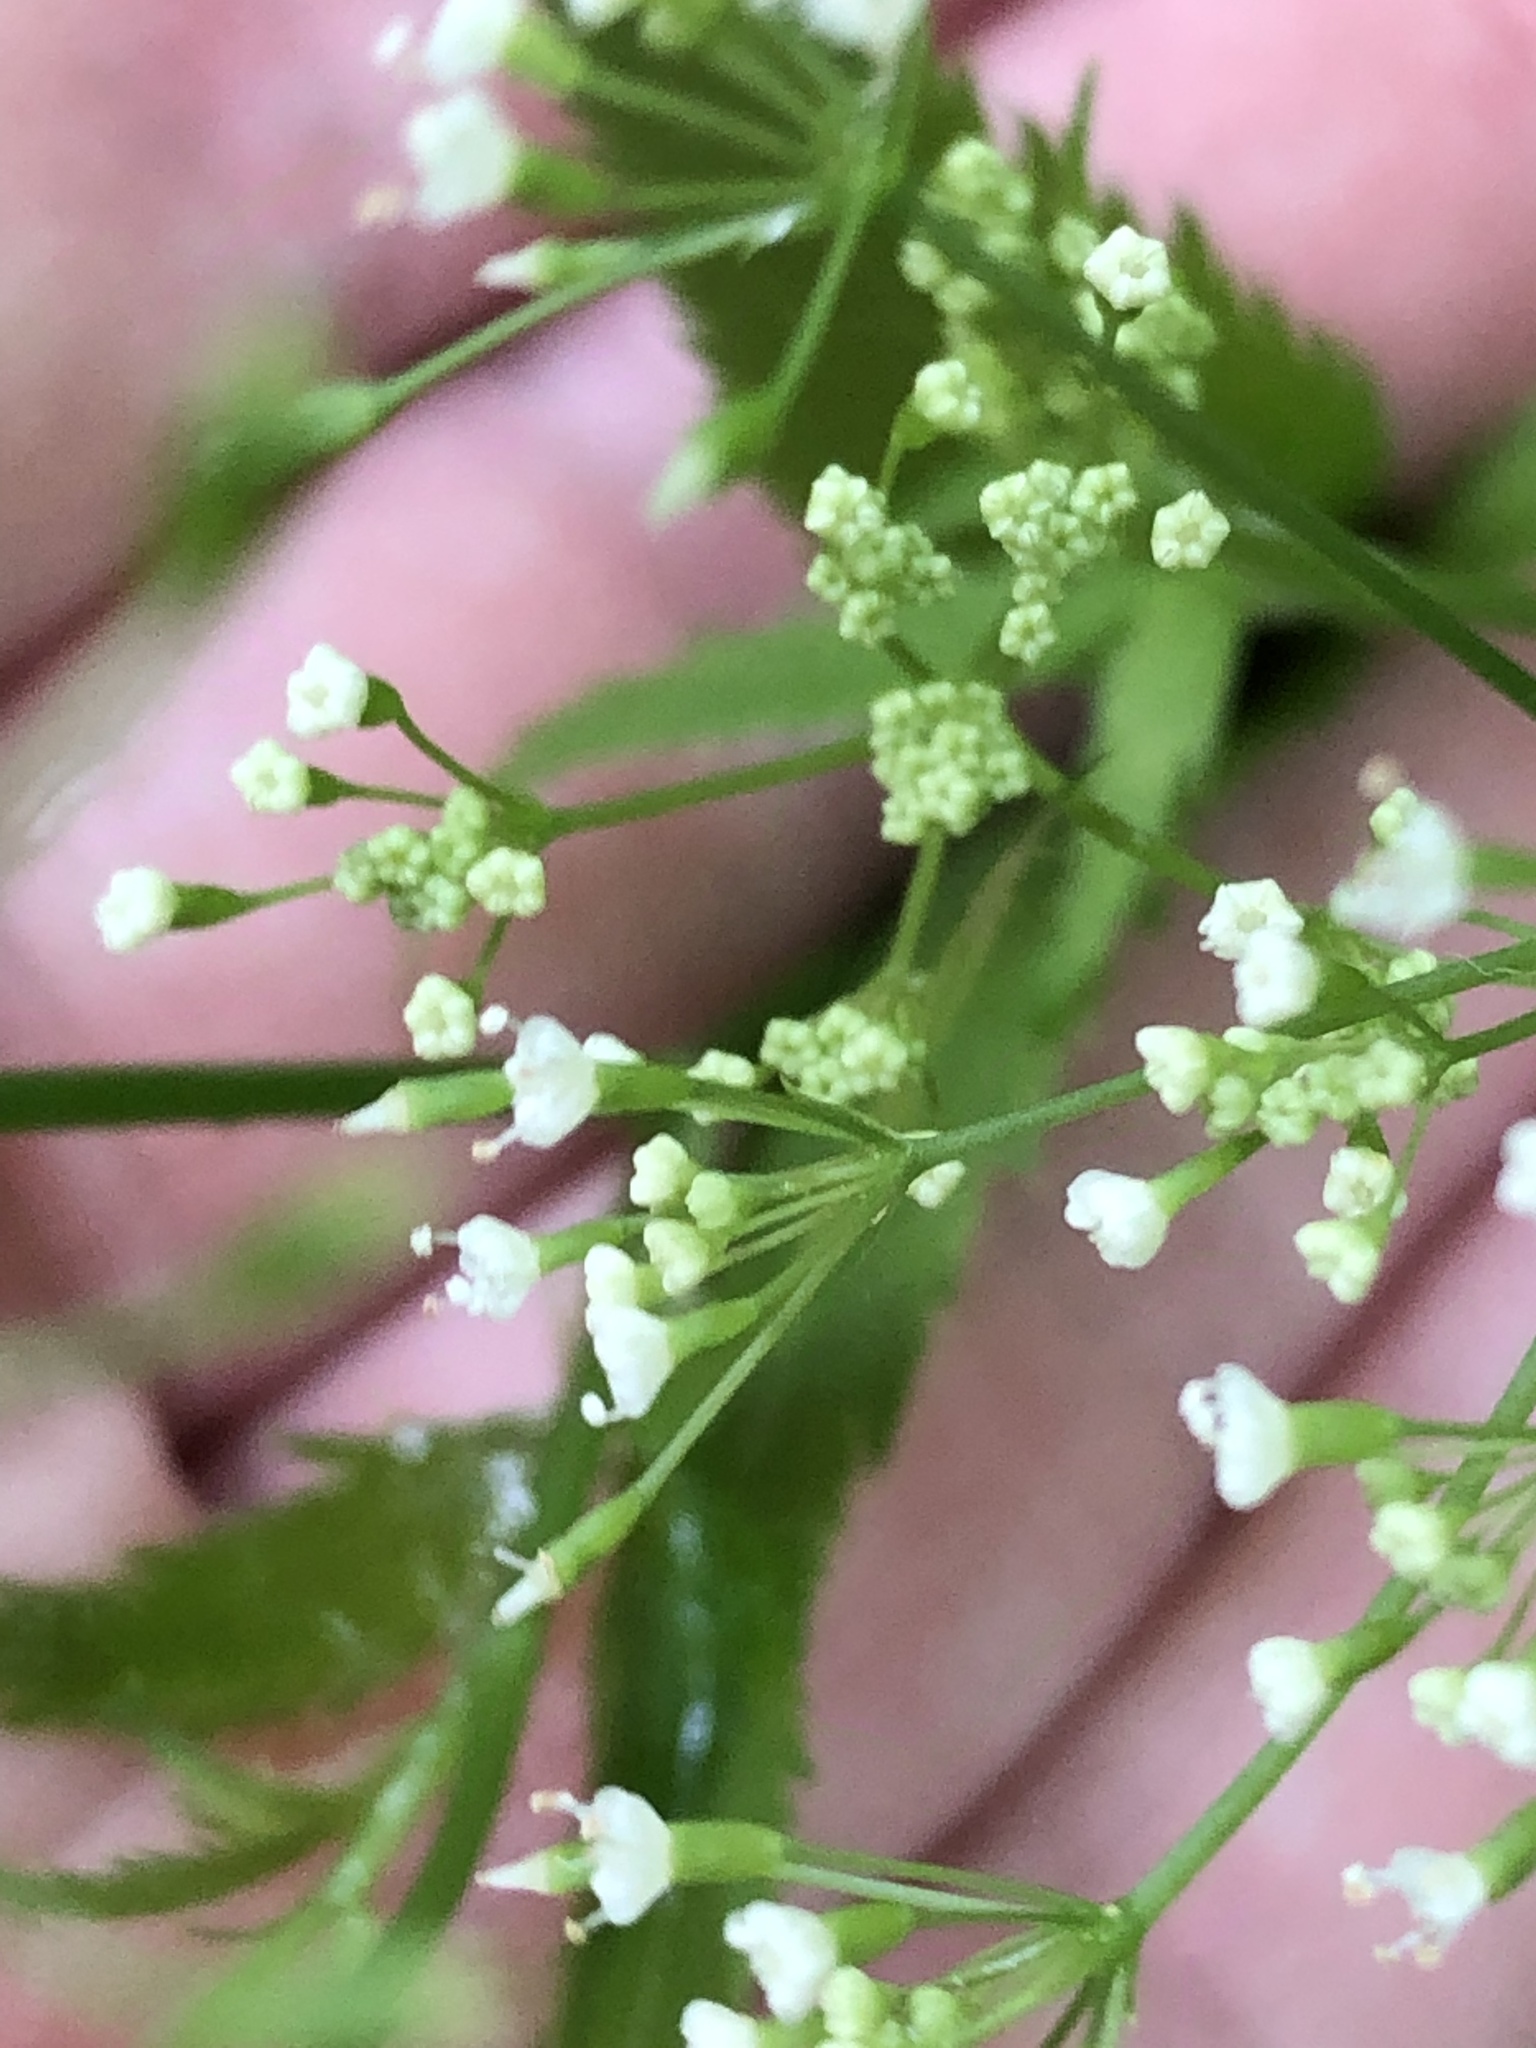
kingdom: Plantae
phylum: Tracheophyta
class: Magnoliopsida
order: Apiales
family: Apiaceae
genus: Cryptotaenia
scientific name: Cryptotaenia canadensis
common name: Honewort
